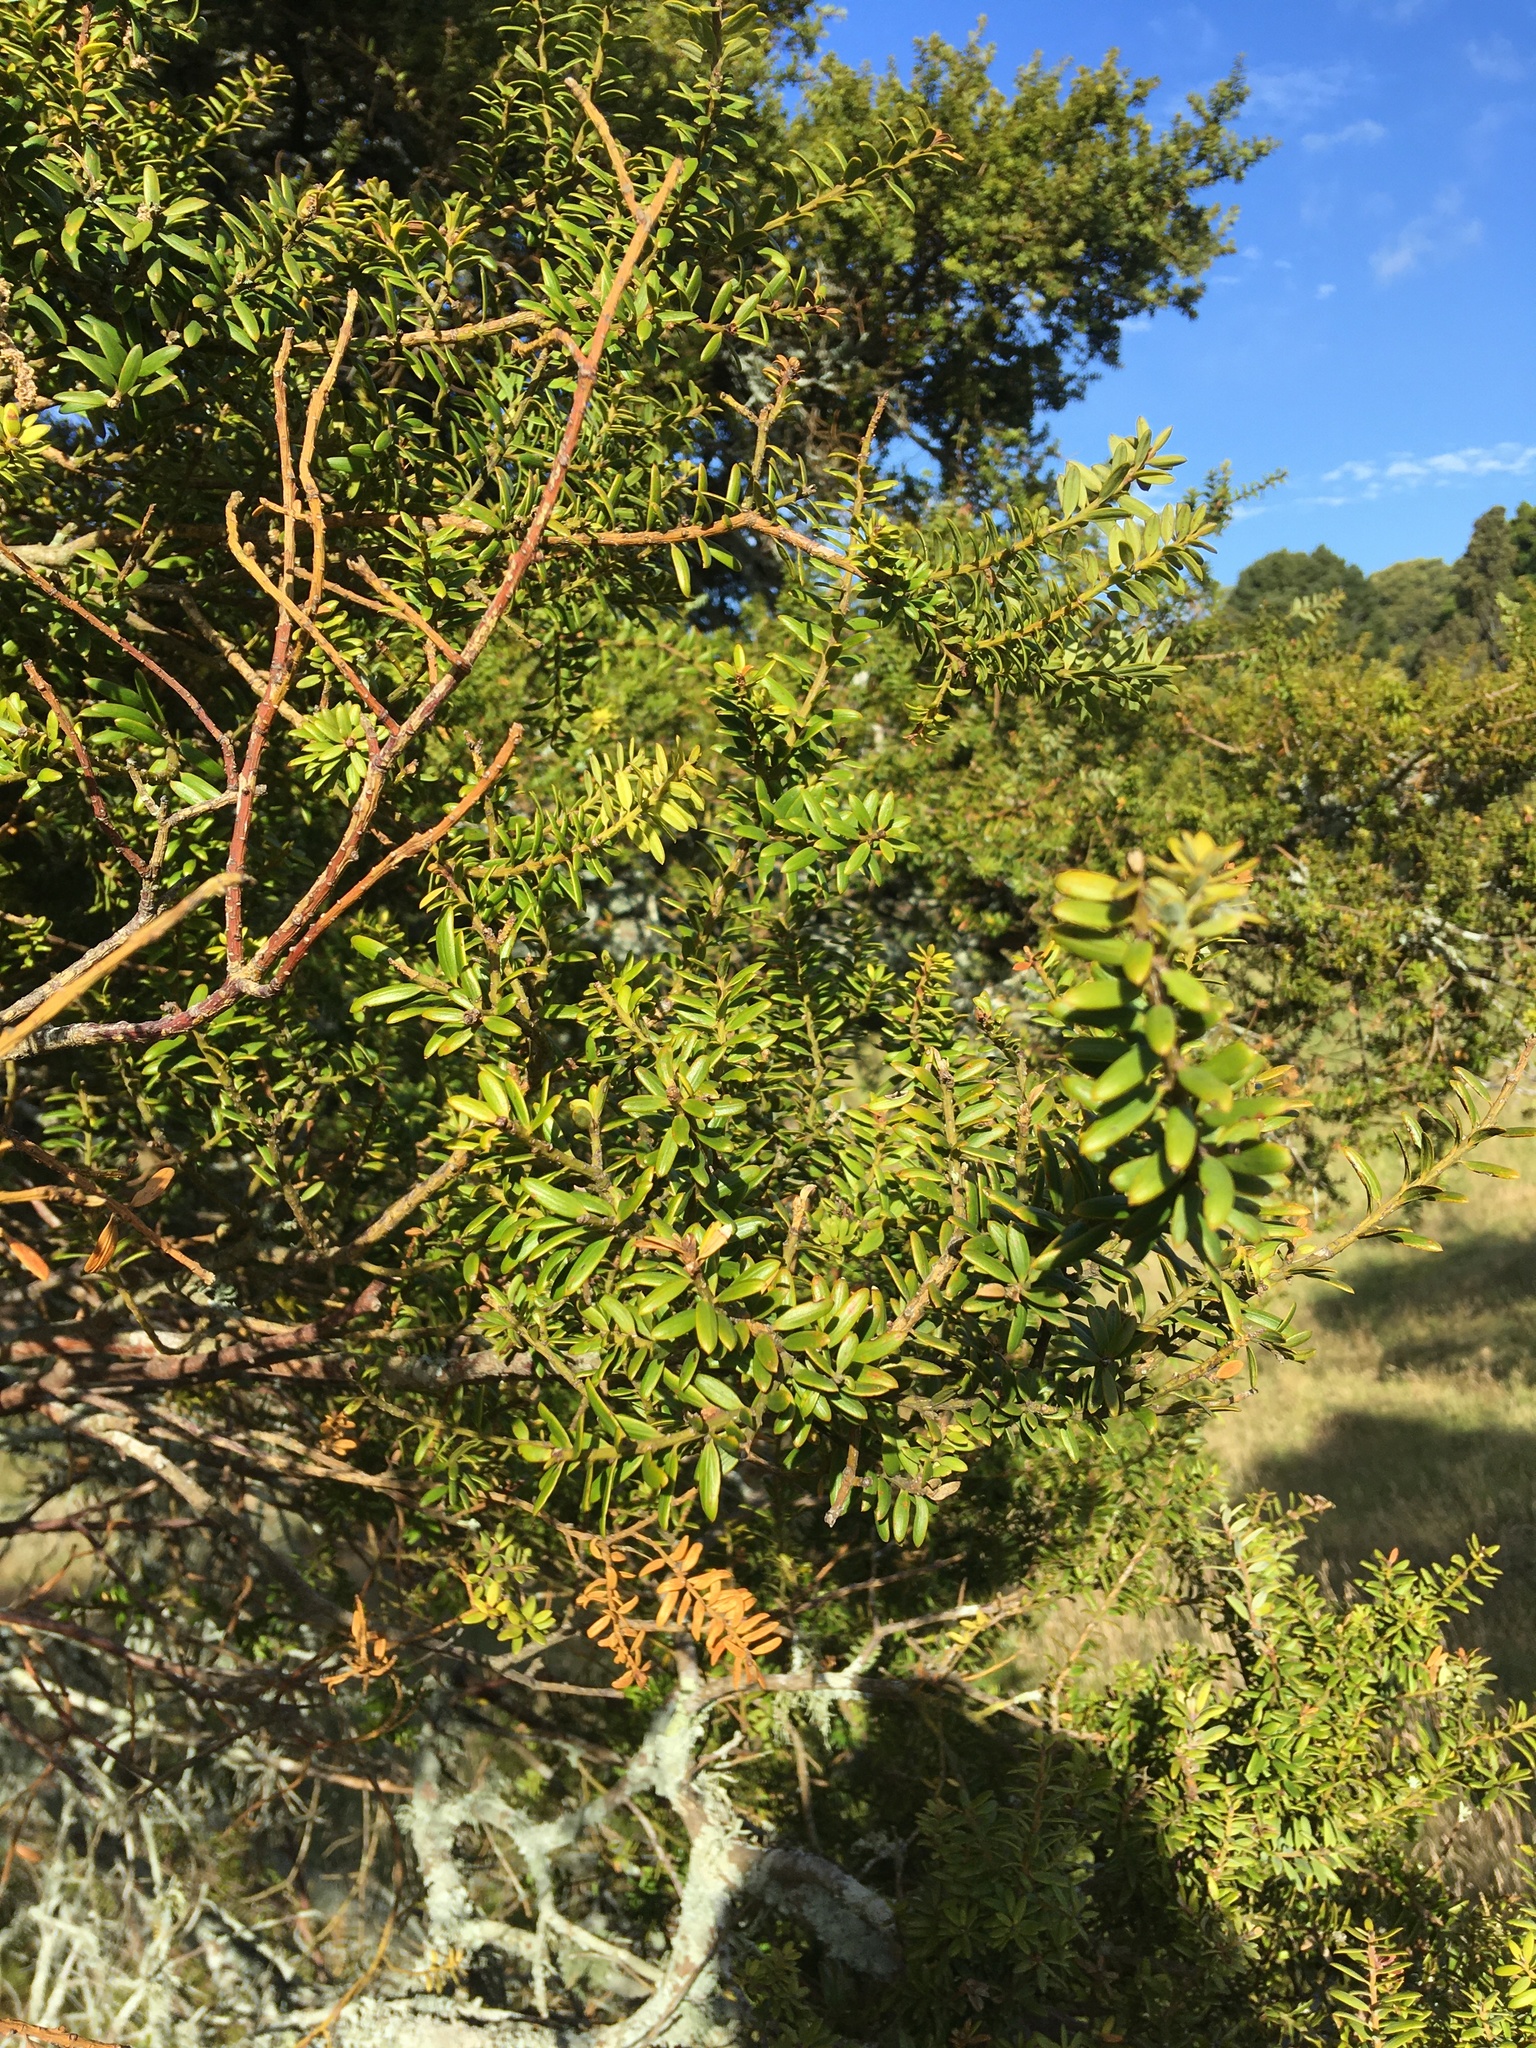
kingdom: Plantae
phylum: Tracheophyta
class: Pinopsida
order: Pinales
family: Podocarpaceae
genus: Podocarpus
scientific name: Podocarpus totara
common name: Totara
